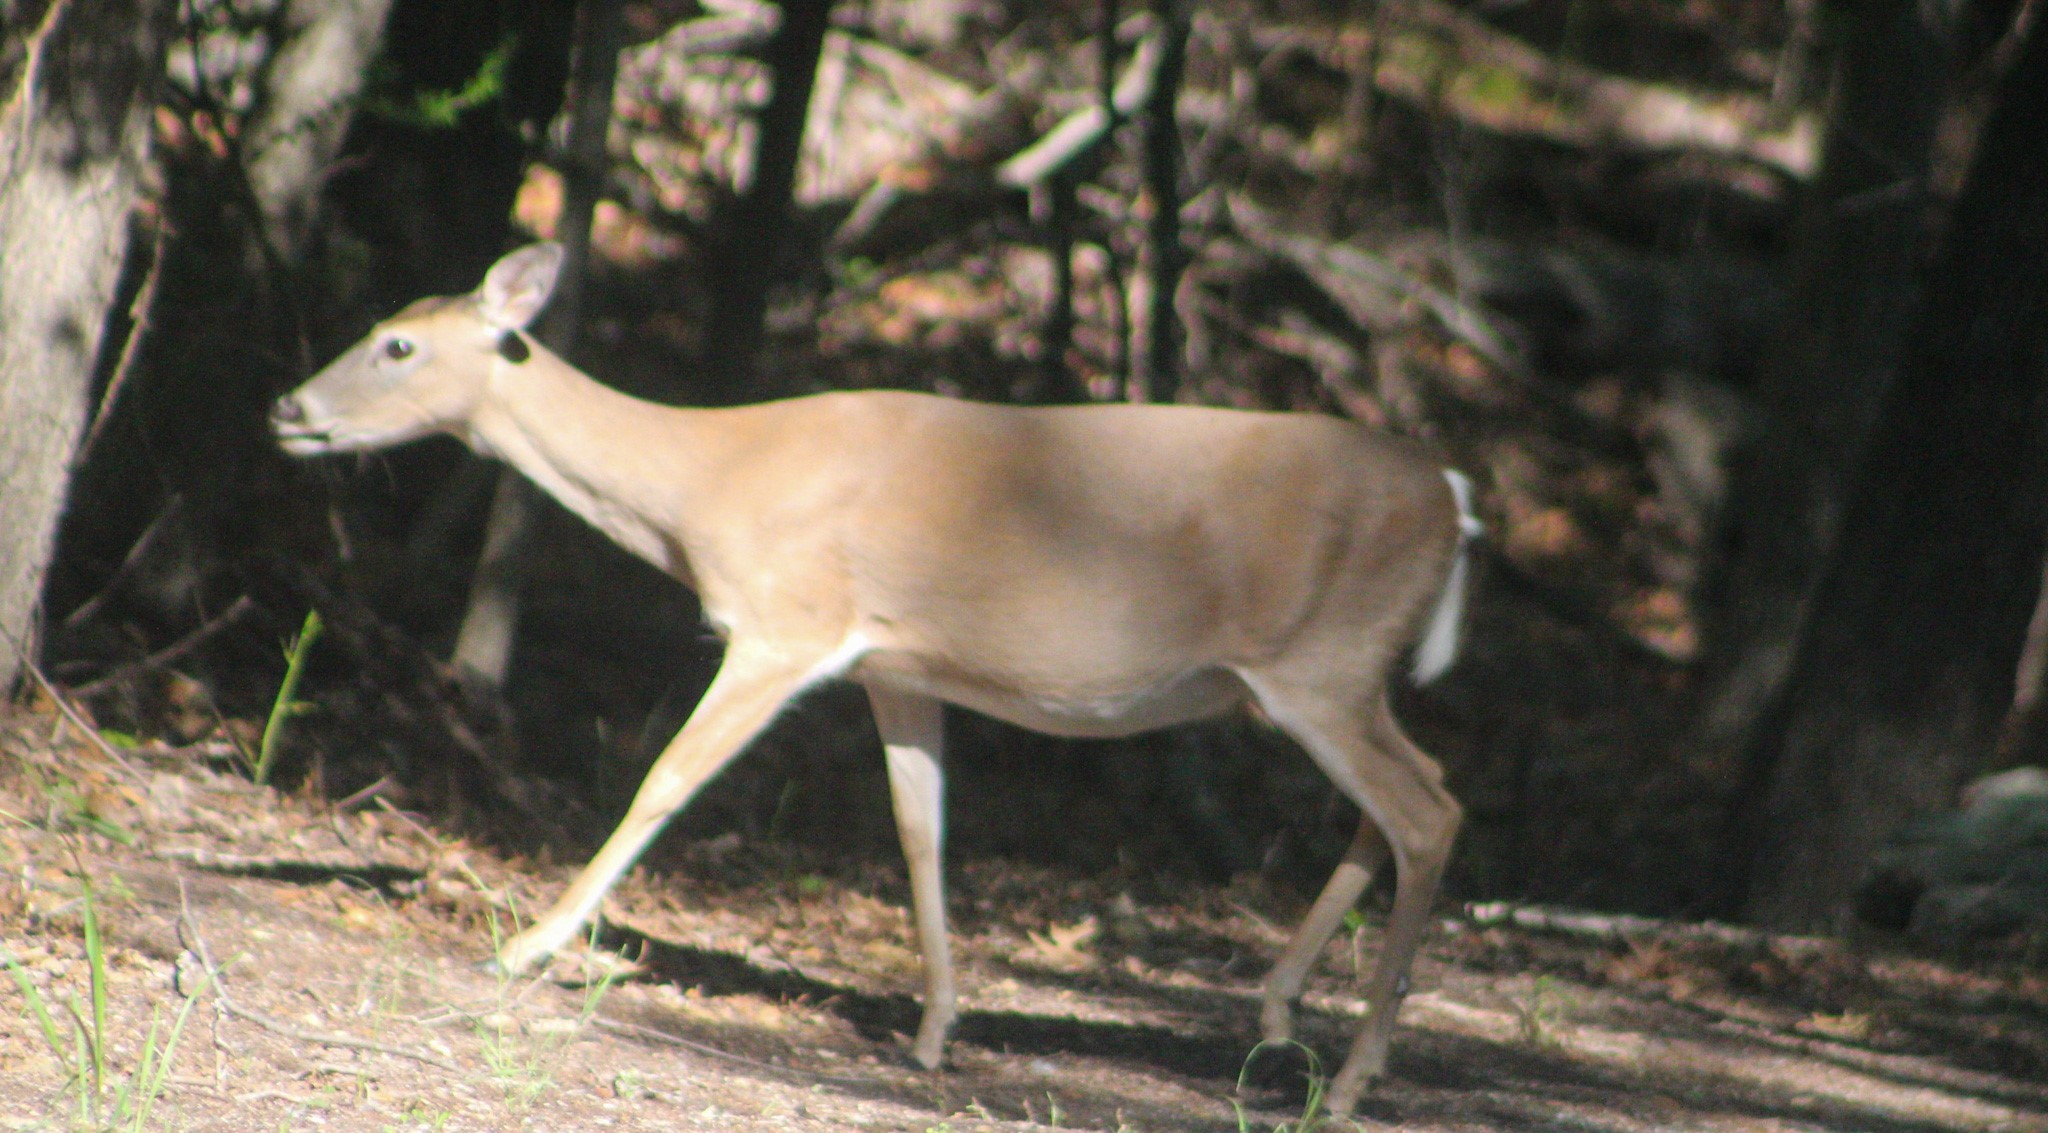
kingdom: Animalia
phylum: Chordata
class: Mammalia
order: Artiodactyla
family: Cervidae
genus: Odocoileus
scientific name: Odocoileus virginianus
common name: White-tailed deer
